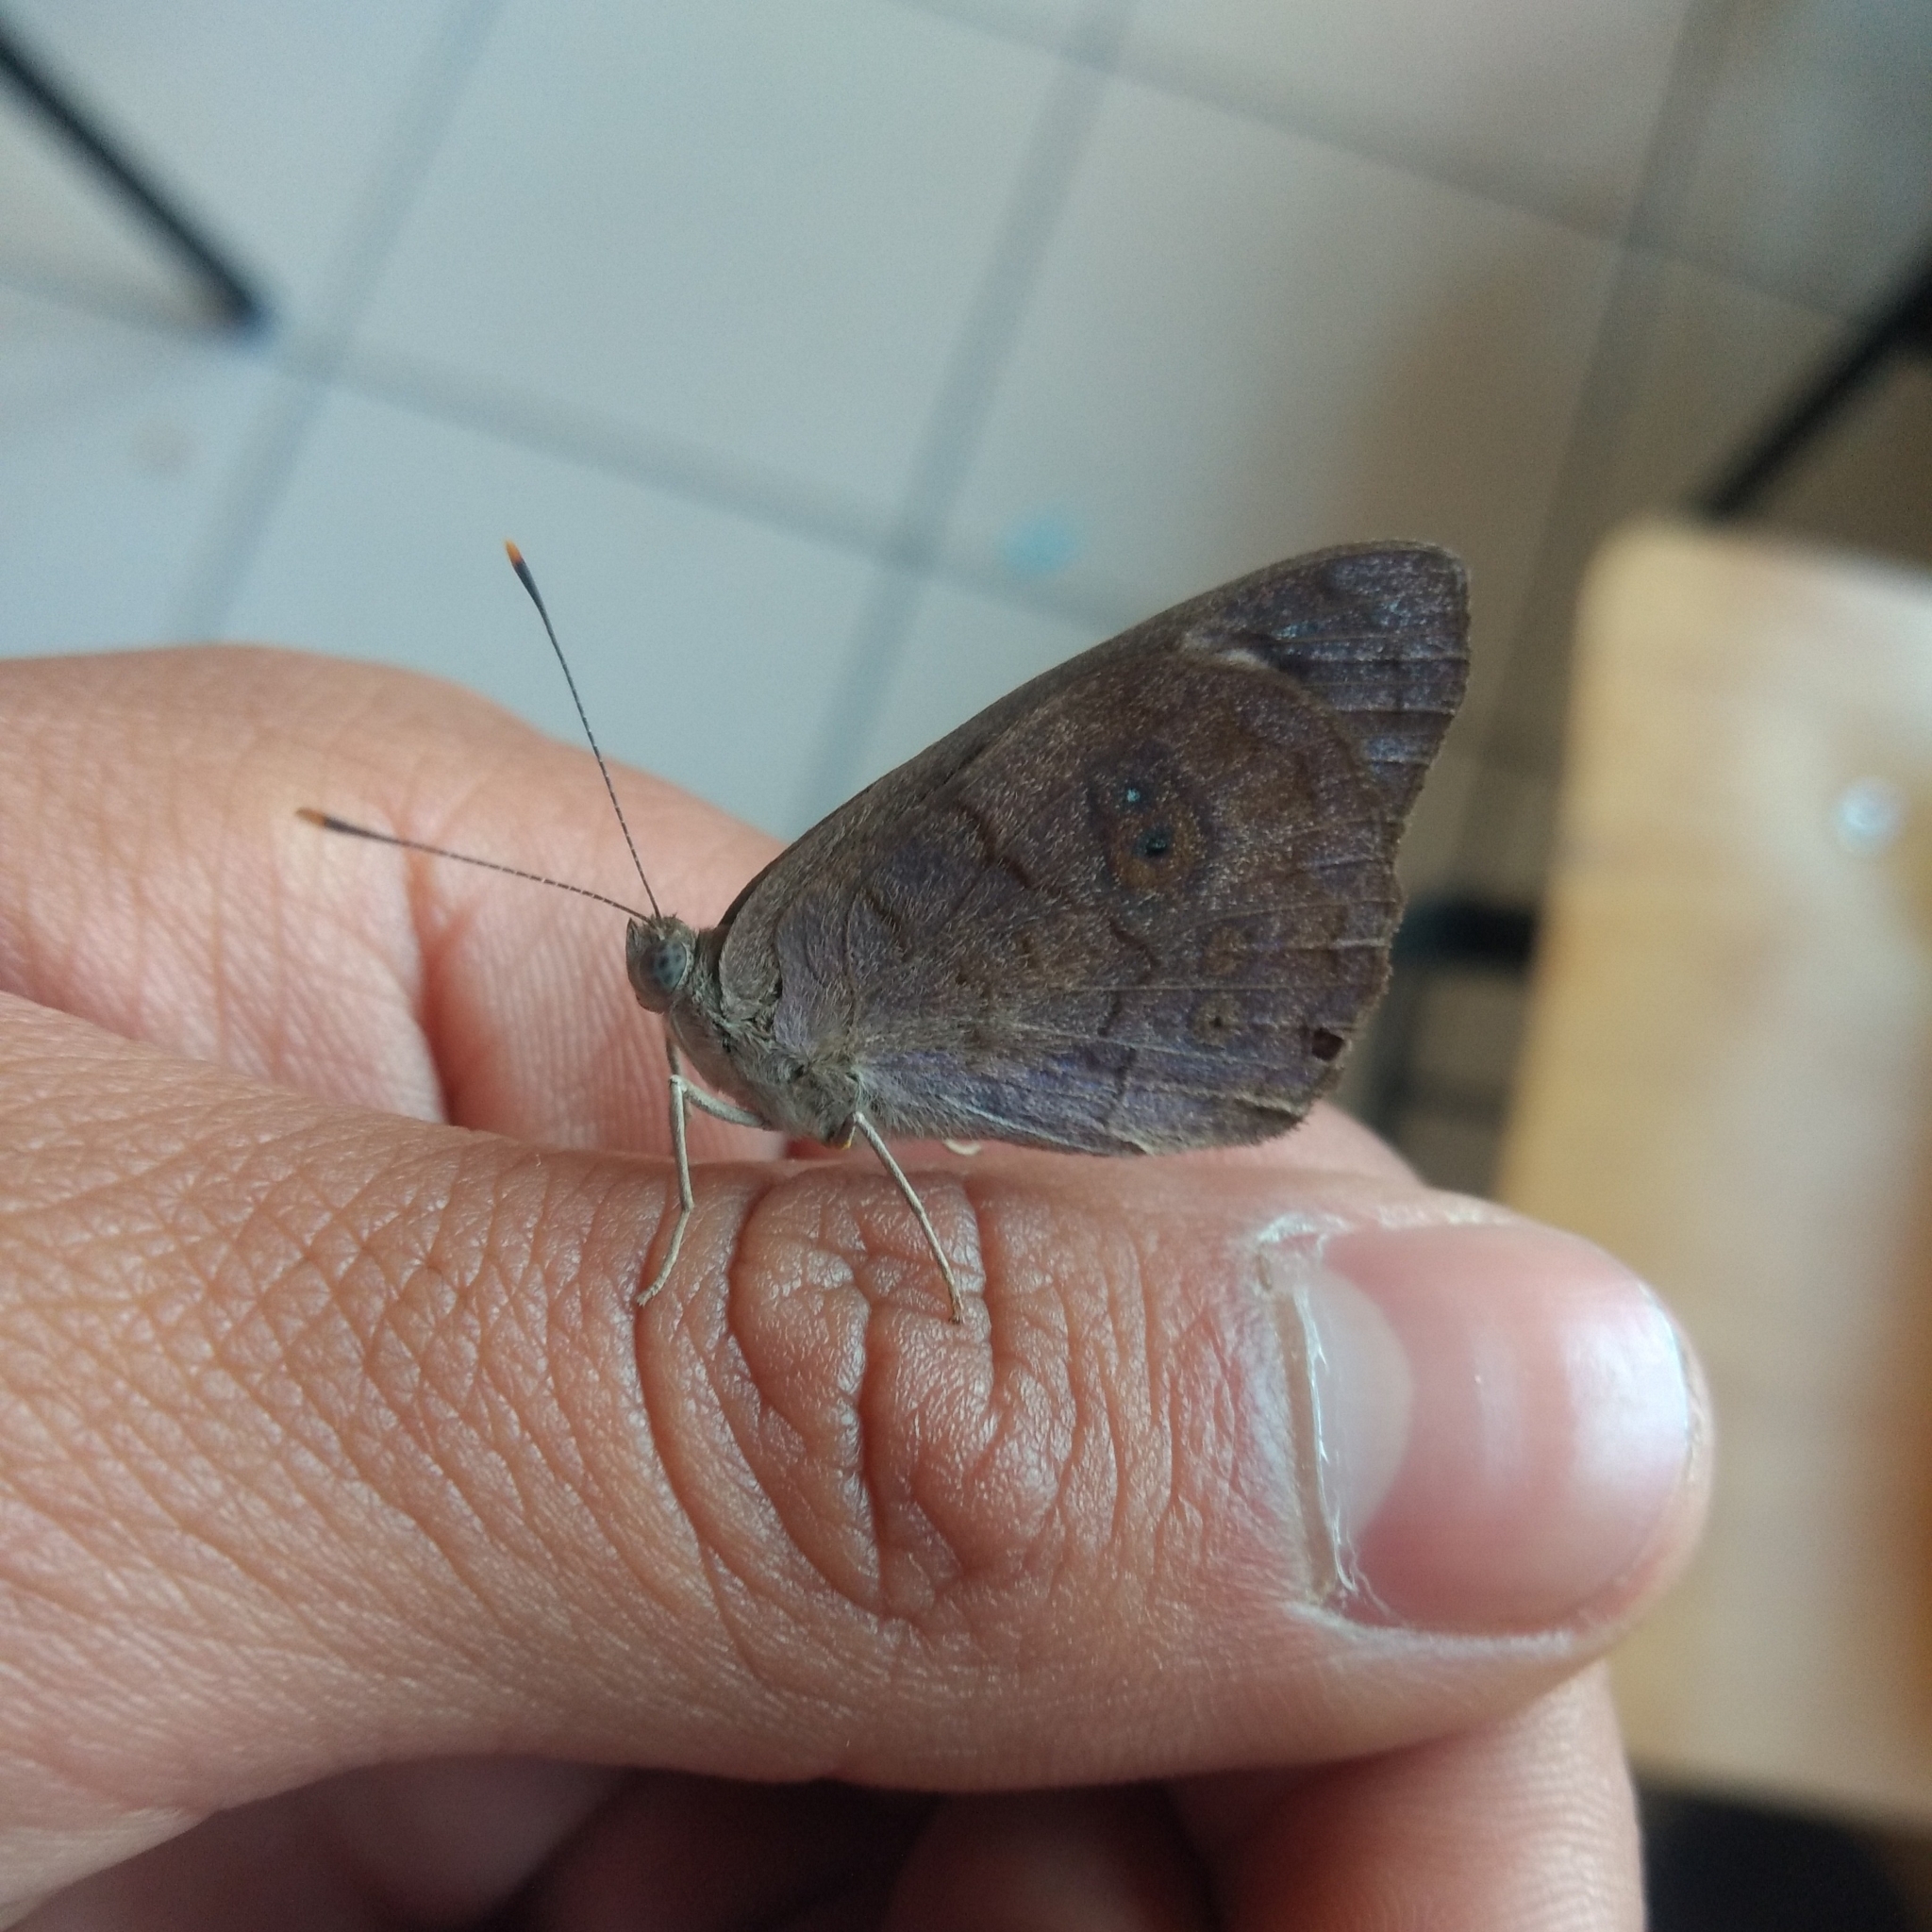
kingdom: Animalia
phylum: Arthropoda
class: Insecta
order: Lepidoptera
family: Nymphalidae
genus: Eunica
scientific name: Eunica monima
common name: Dingy purplewing
